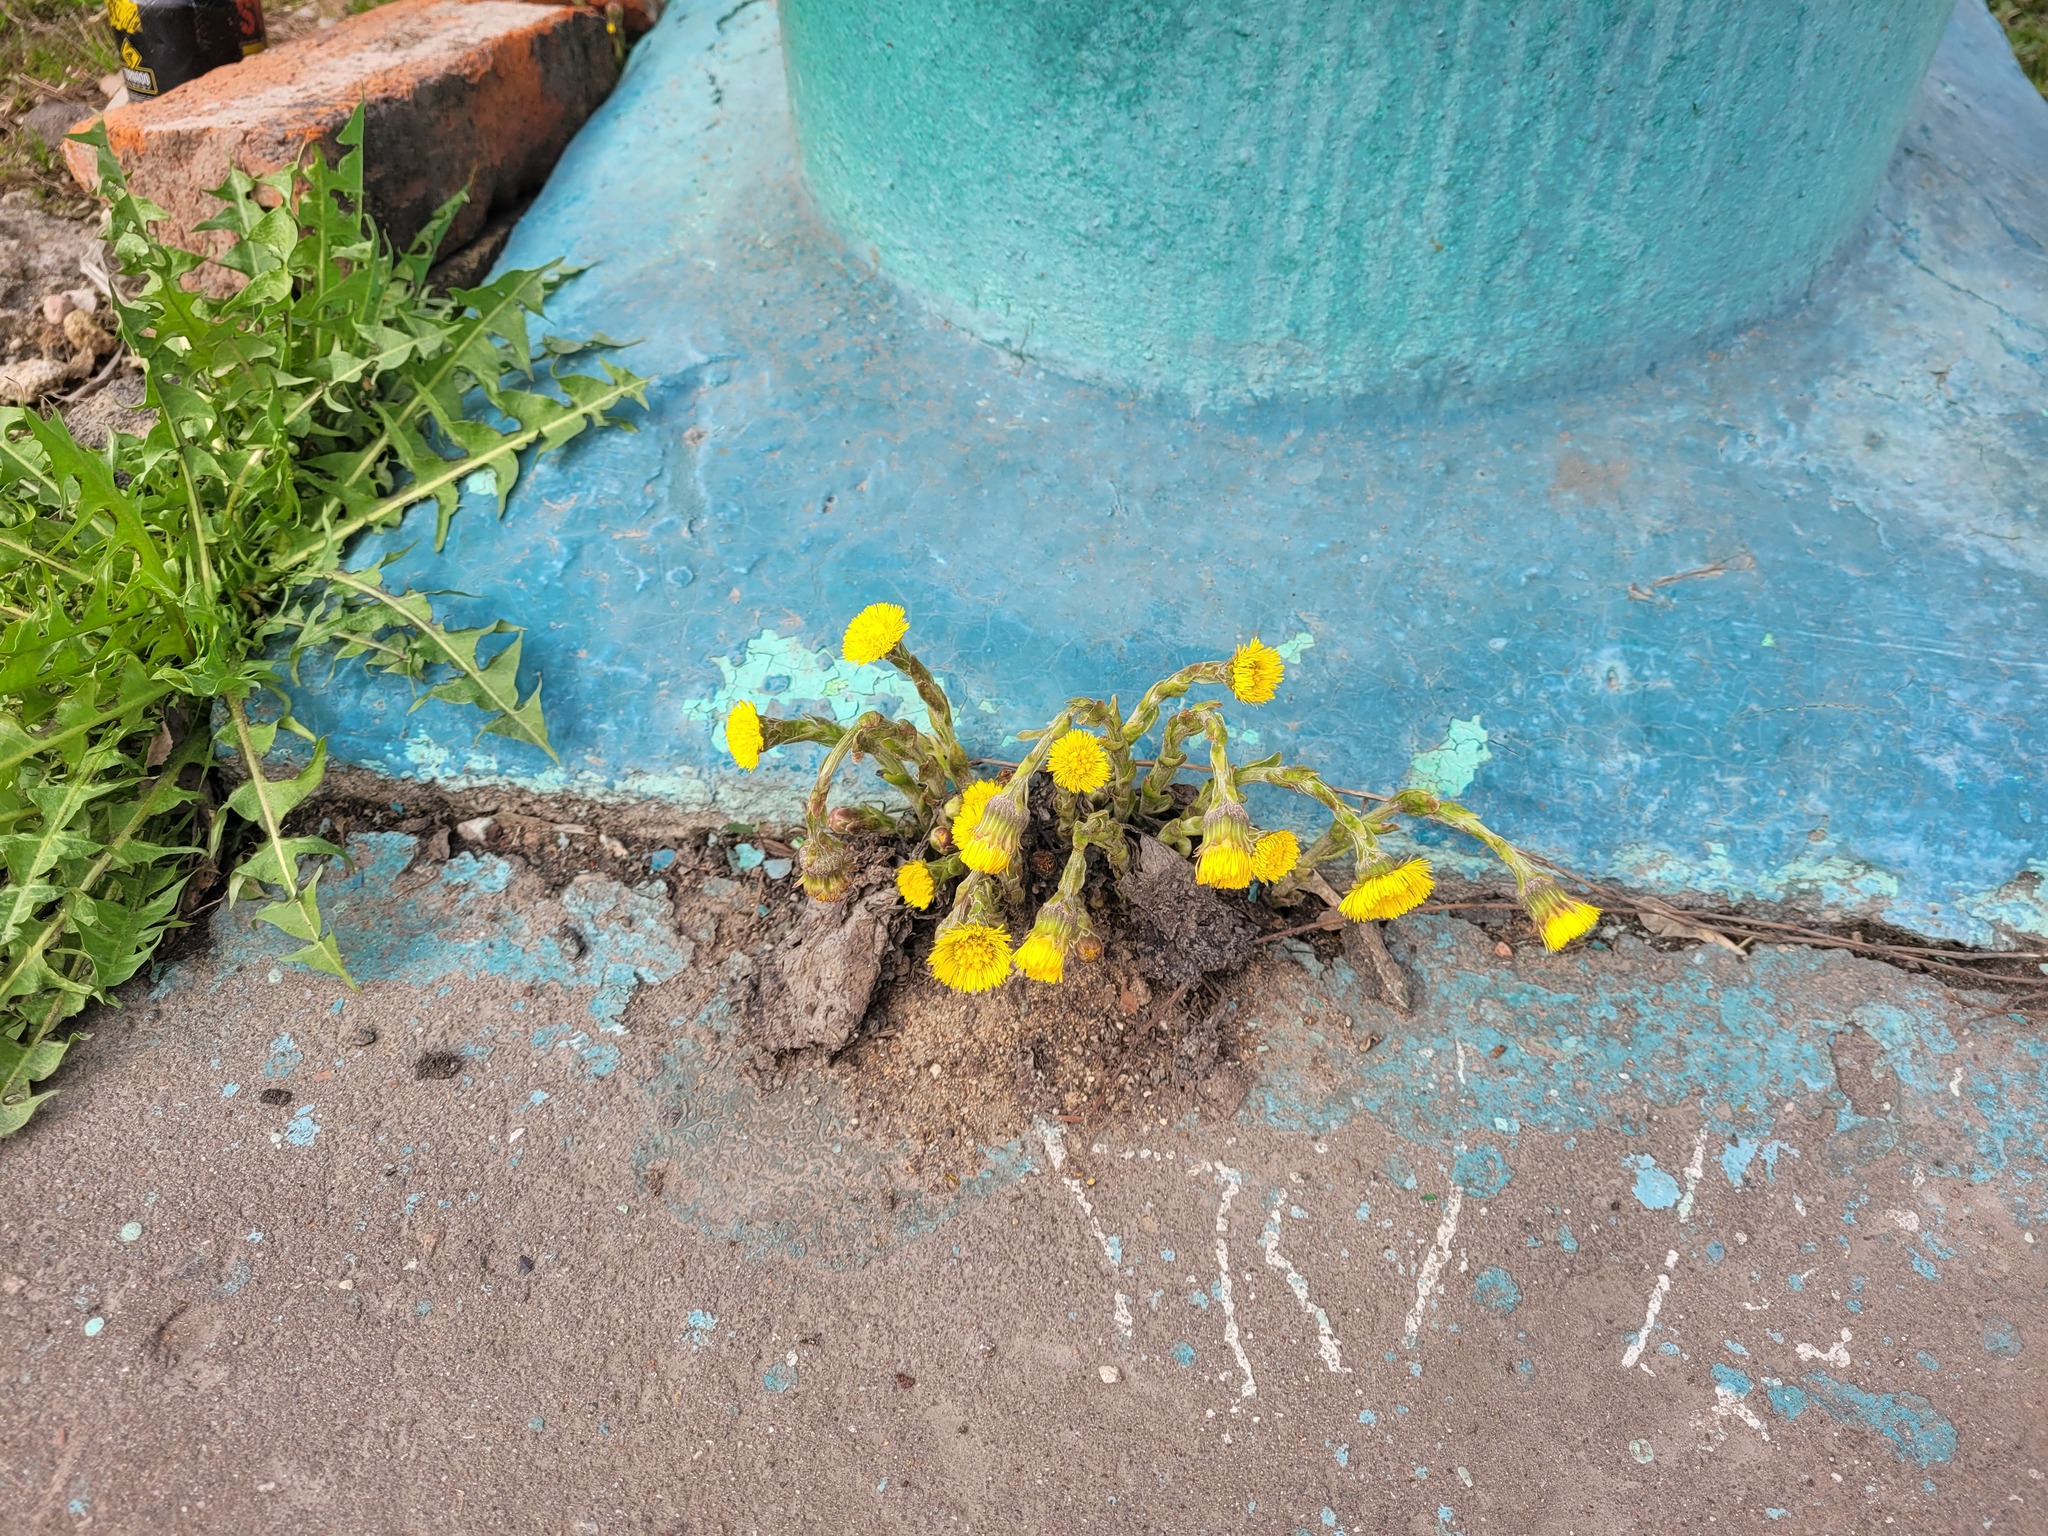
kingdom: Plantae
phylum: Tracheophyta
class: Magnoliopsida
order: Asterales
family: Asteraceae
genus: Tussilago
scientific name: Tussilago farfara
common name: Coltsfoot
